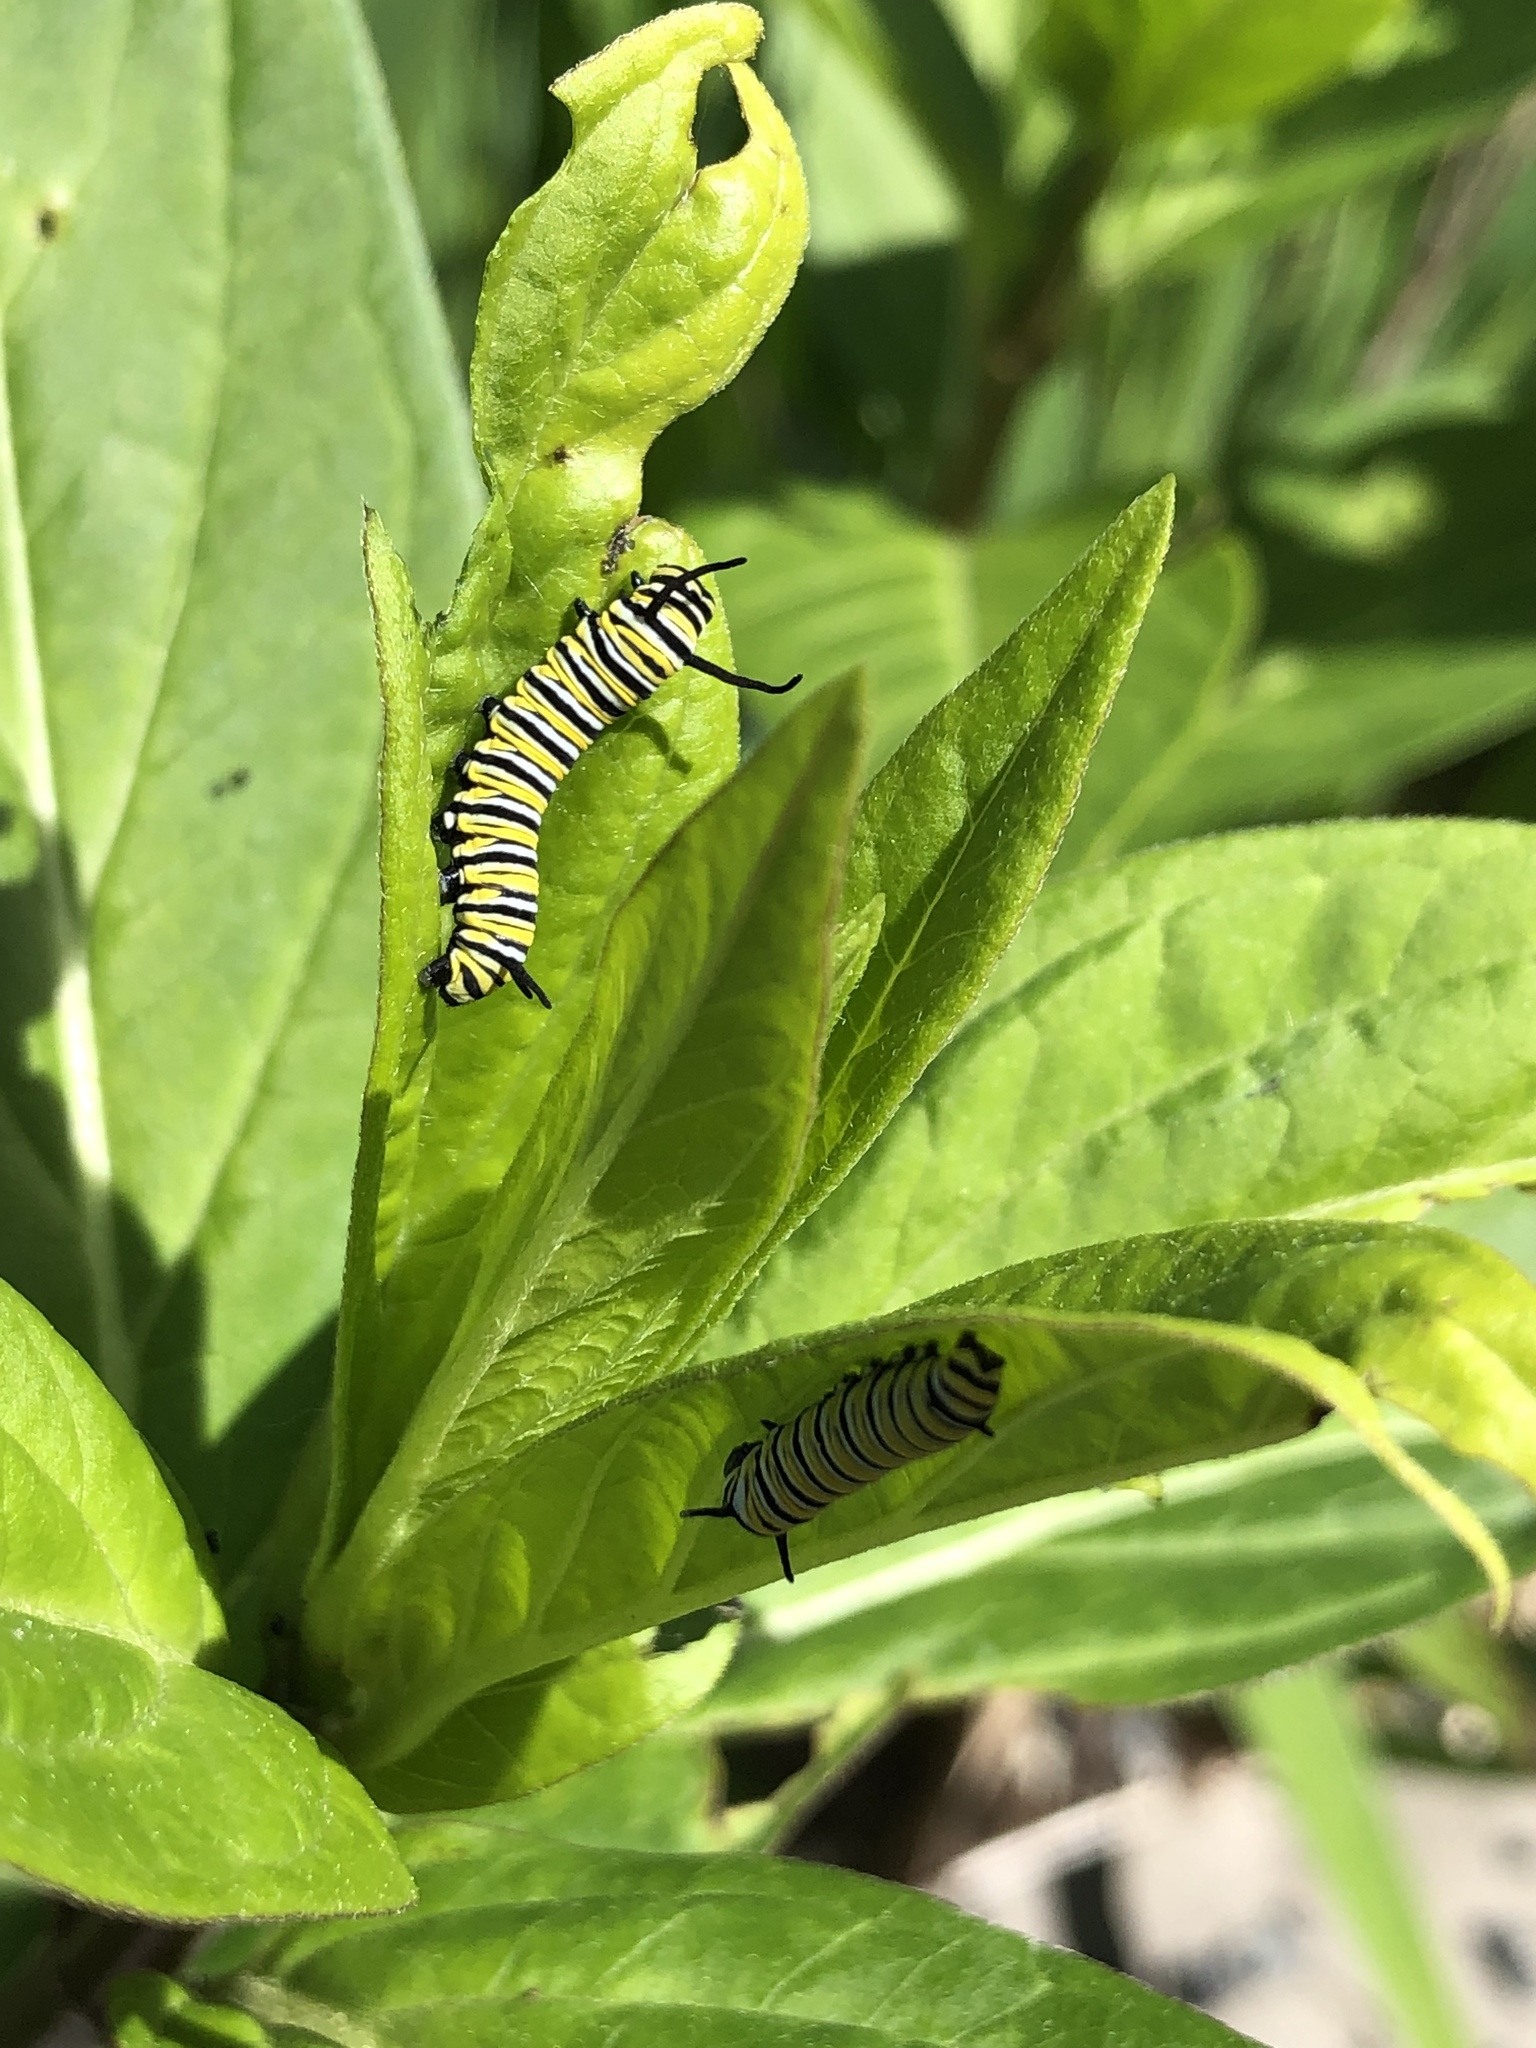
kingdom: Animalia
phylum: Arthropoda
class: Insecta
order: Lepidoptera
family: Nymphalidae
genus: Danaus
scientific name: Danaus plexippus
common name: Monarch
